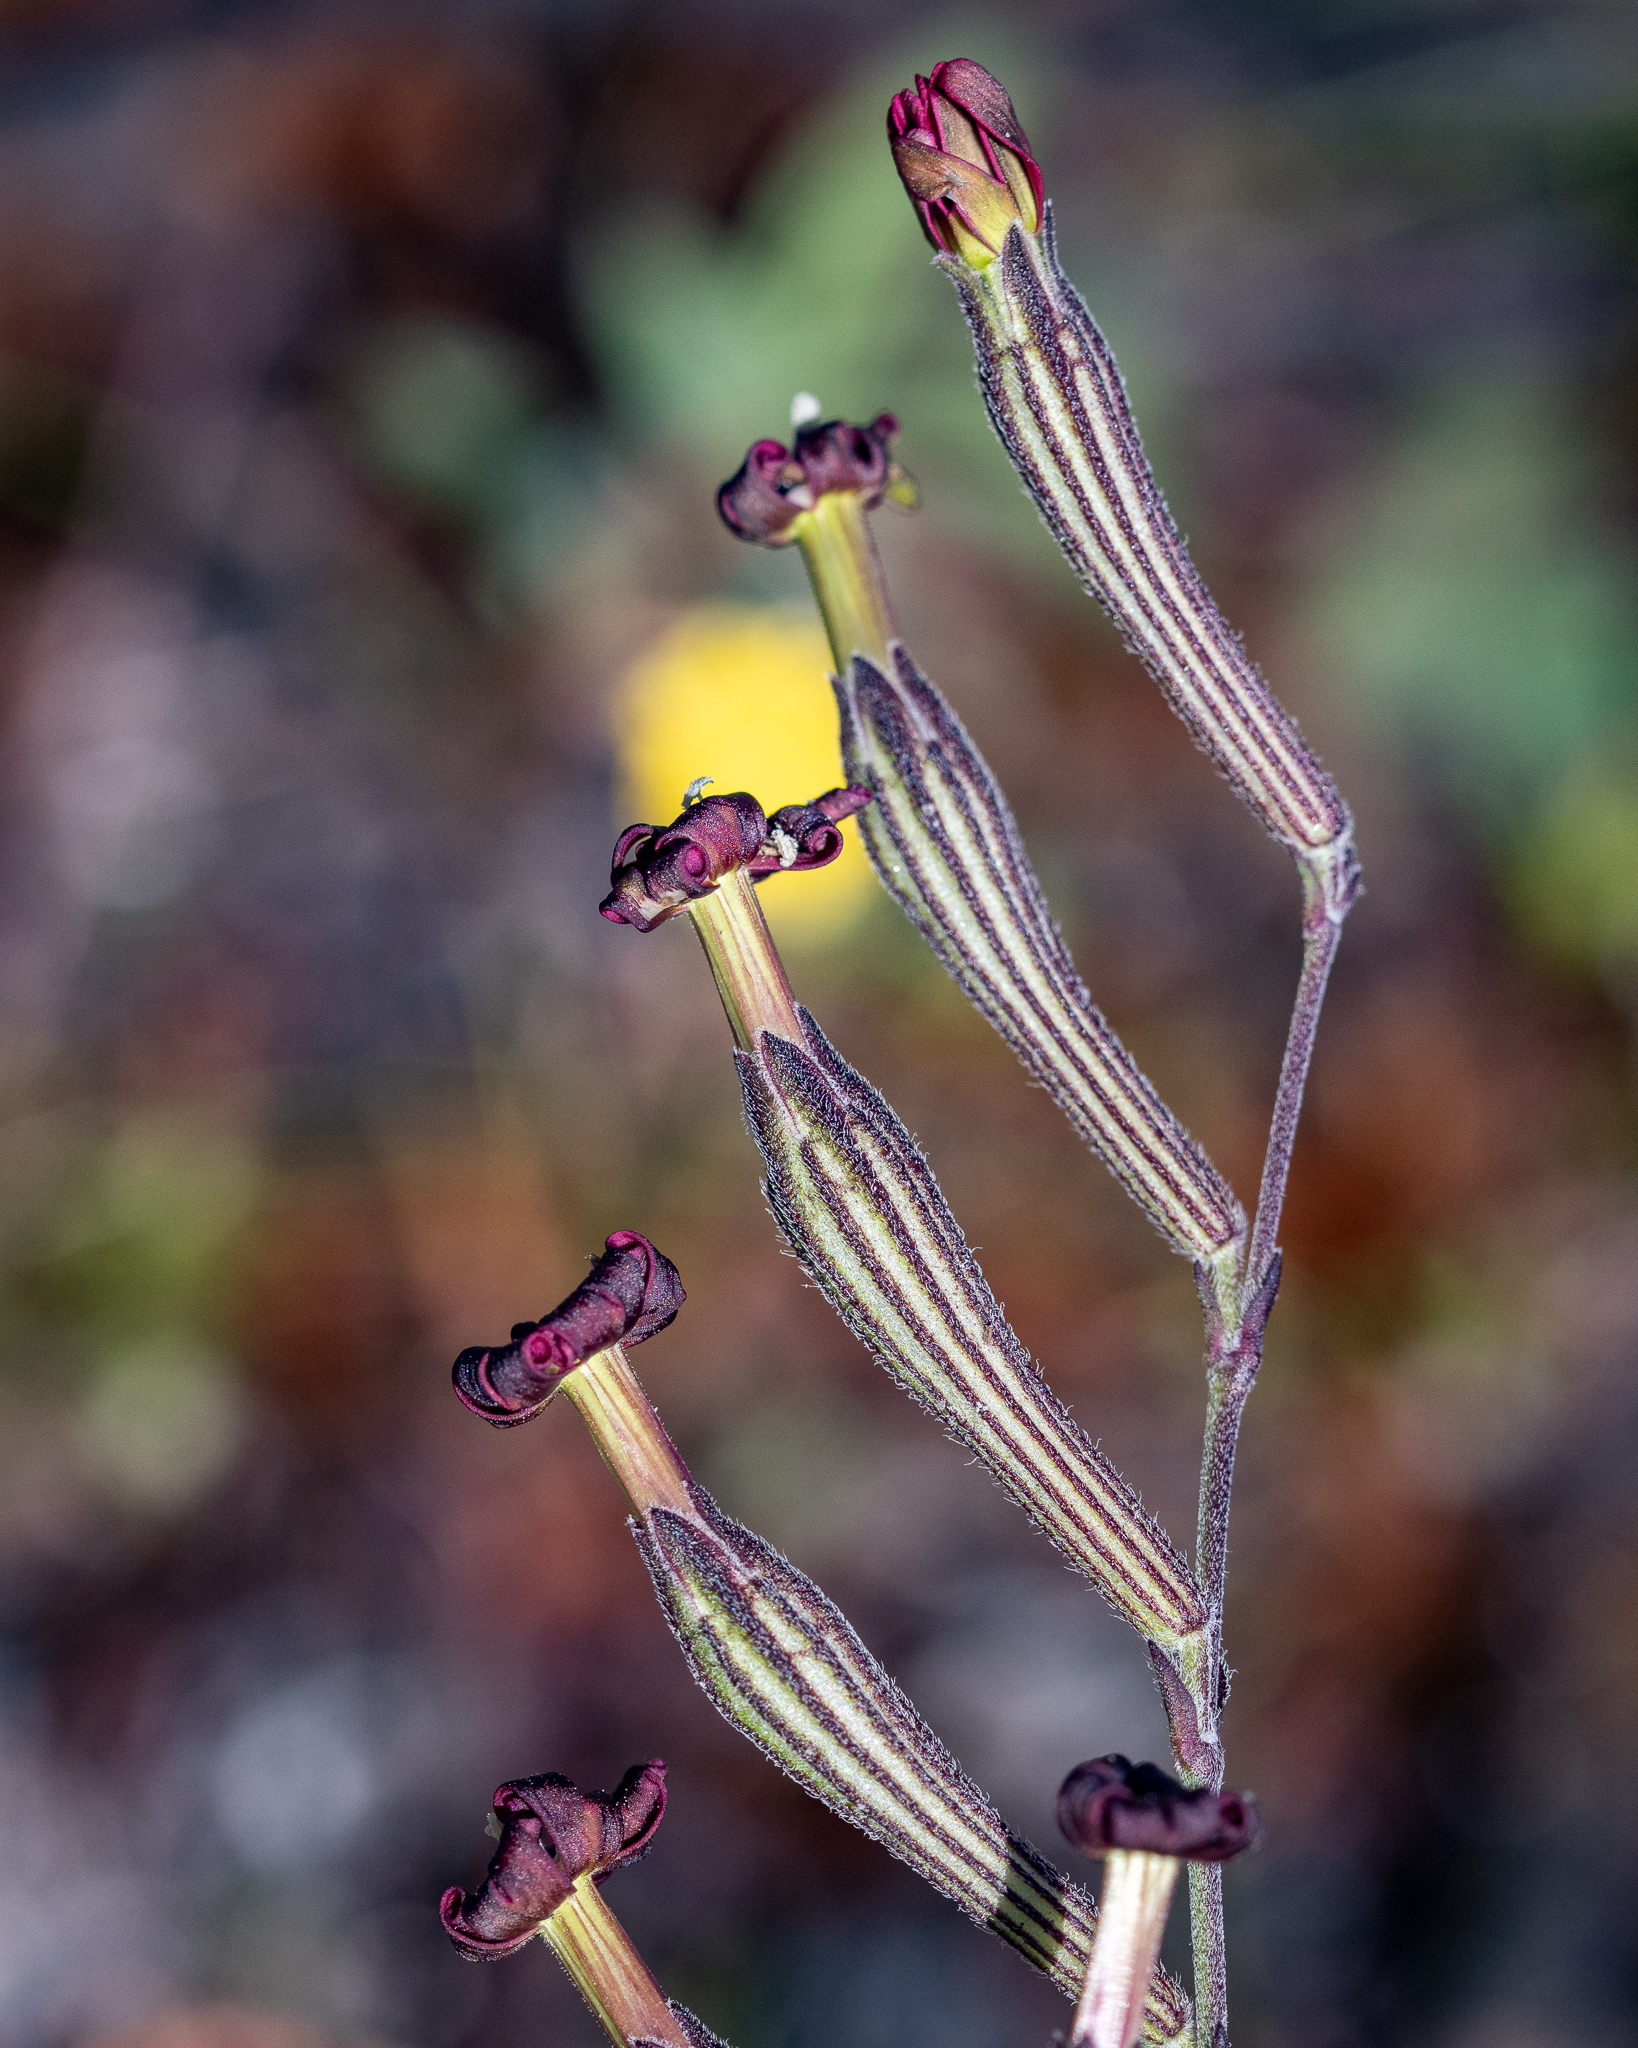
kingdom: Plantae
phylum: Tracheophyta
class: Magnoliopsida
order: Caryophyllales
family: Caryophyllaceae
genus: Silene
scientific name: Silene burchellii
